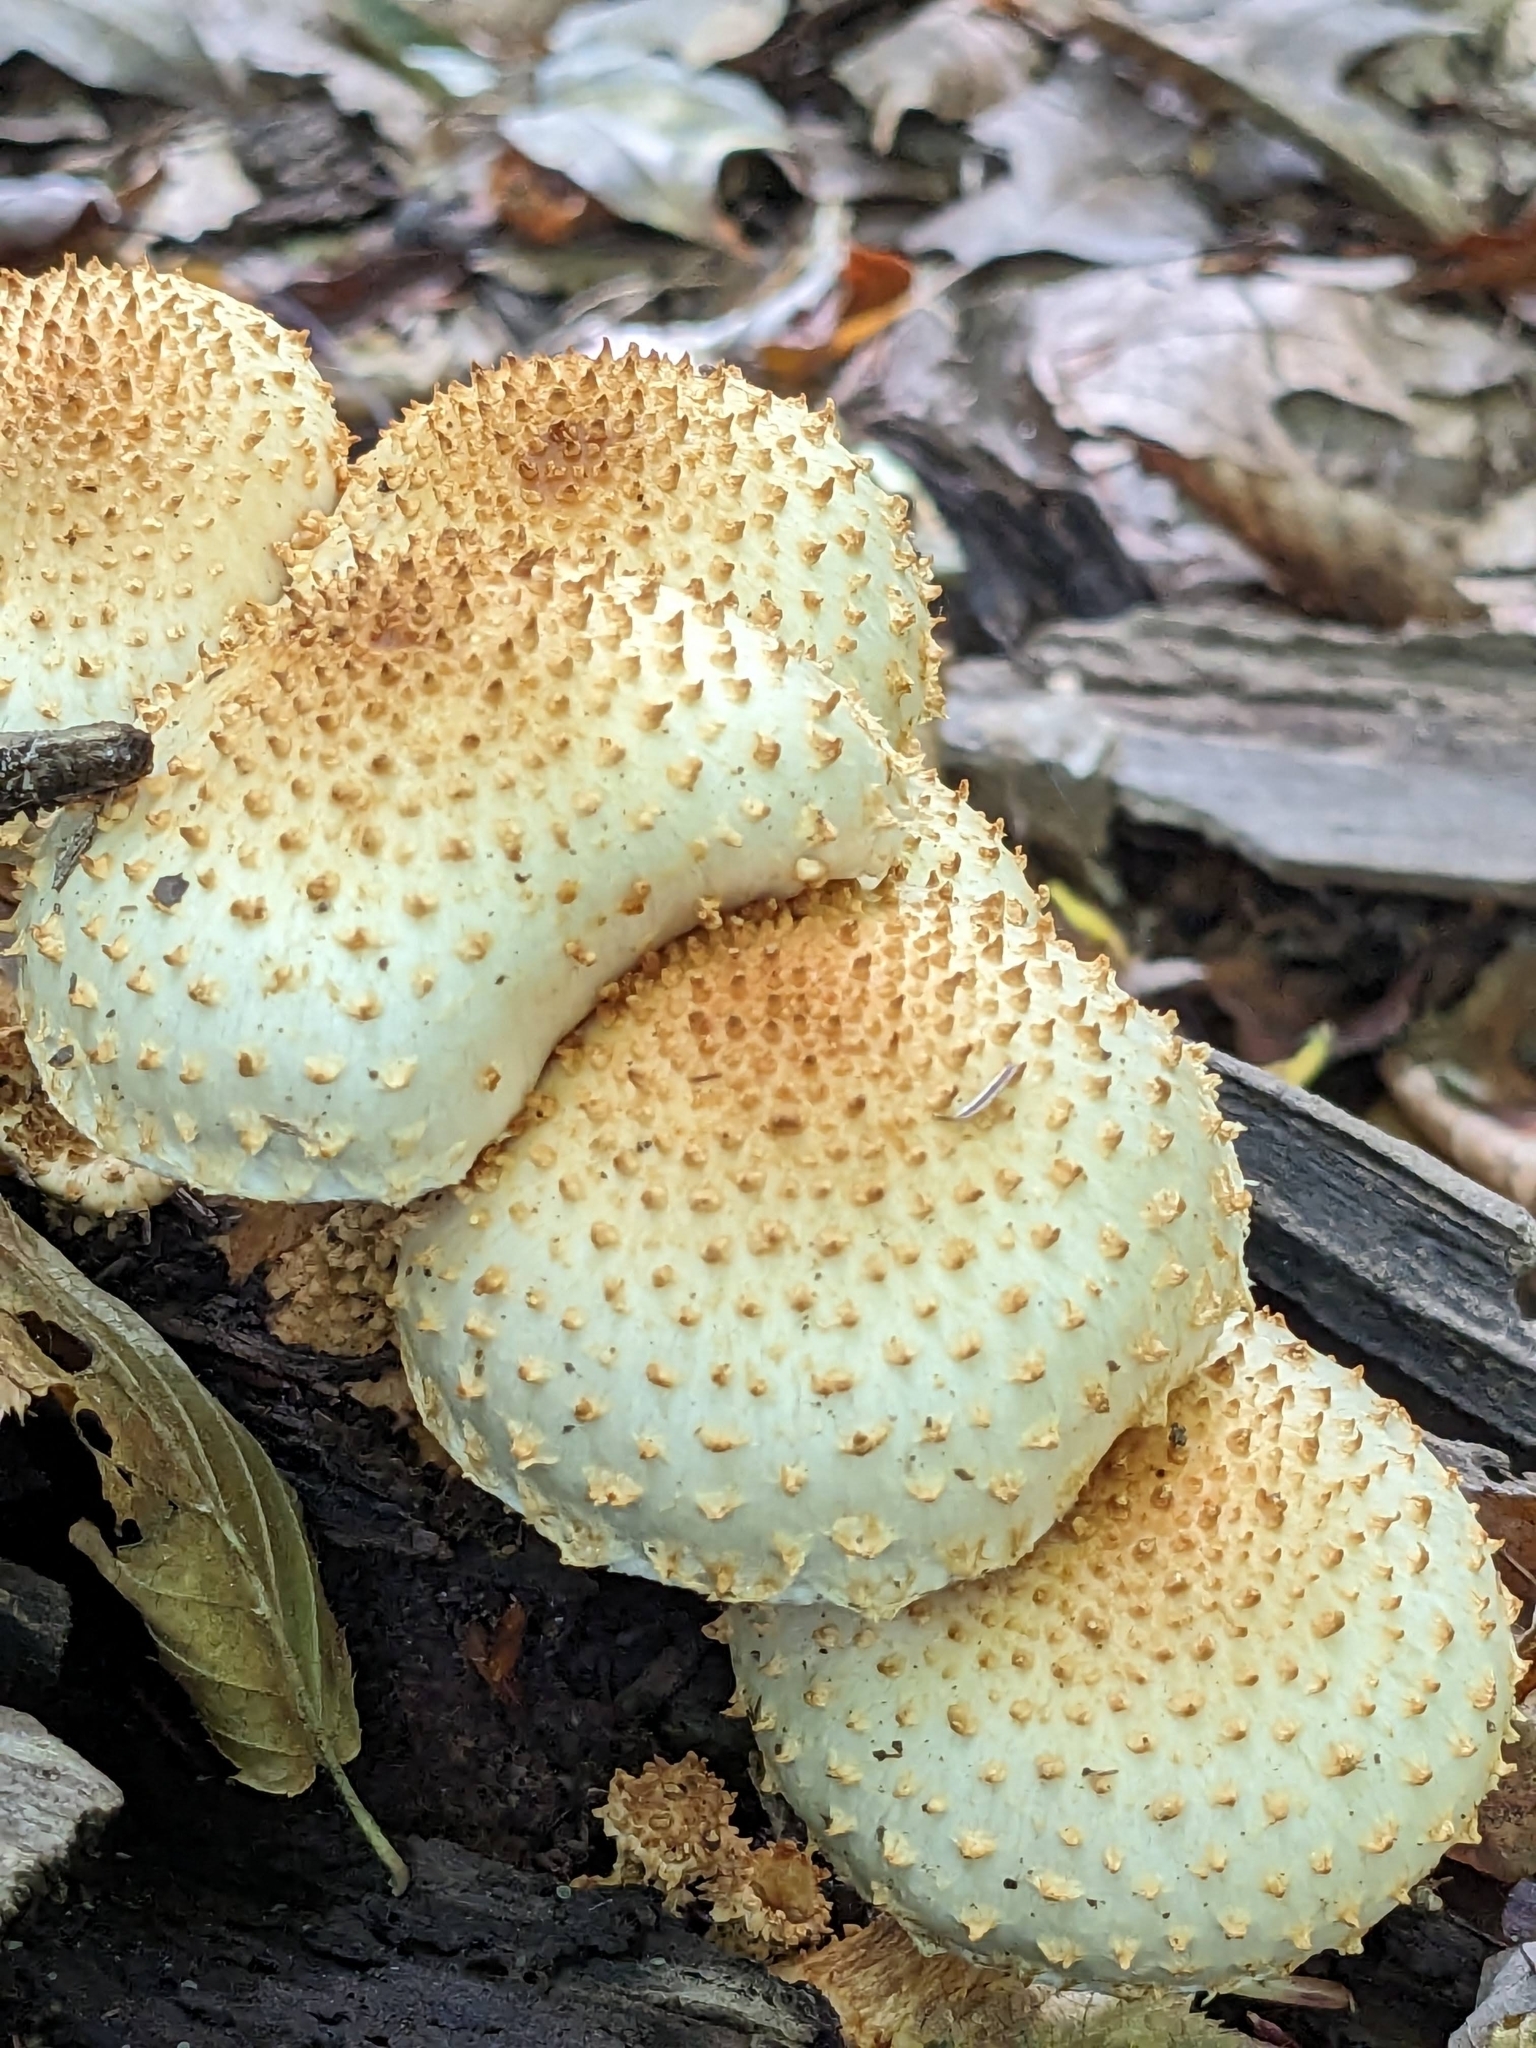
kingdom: Fungi
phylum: Basidiomycota
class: Agaricomycetes
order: Agaricales
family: Strophariaceae
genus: Pholiota
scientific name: Pholiota squarrosoides
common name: Sharp-scaly pholiota
